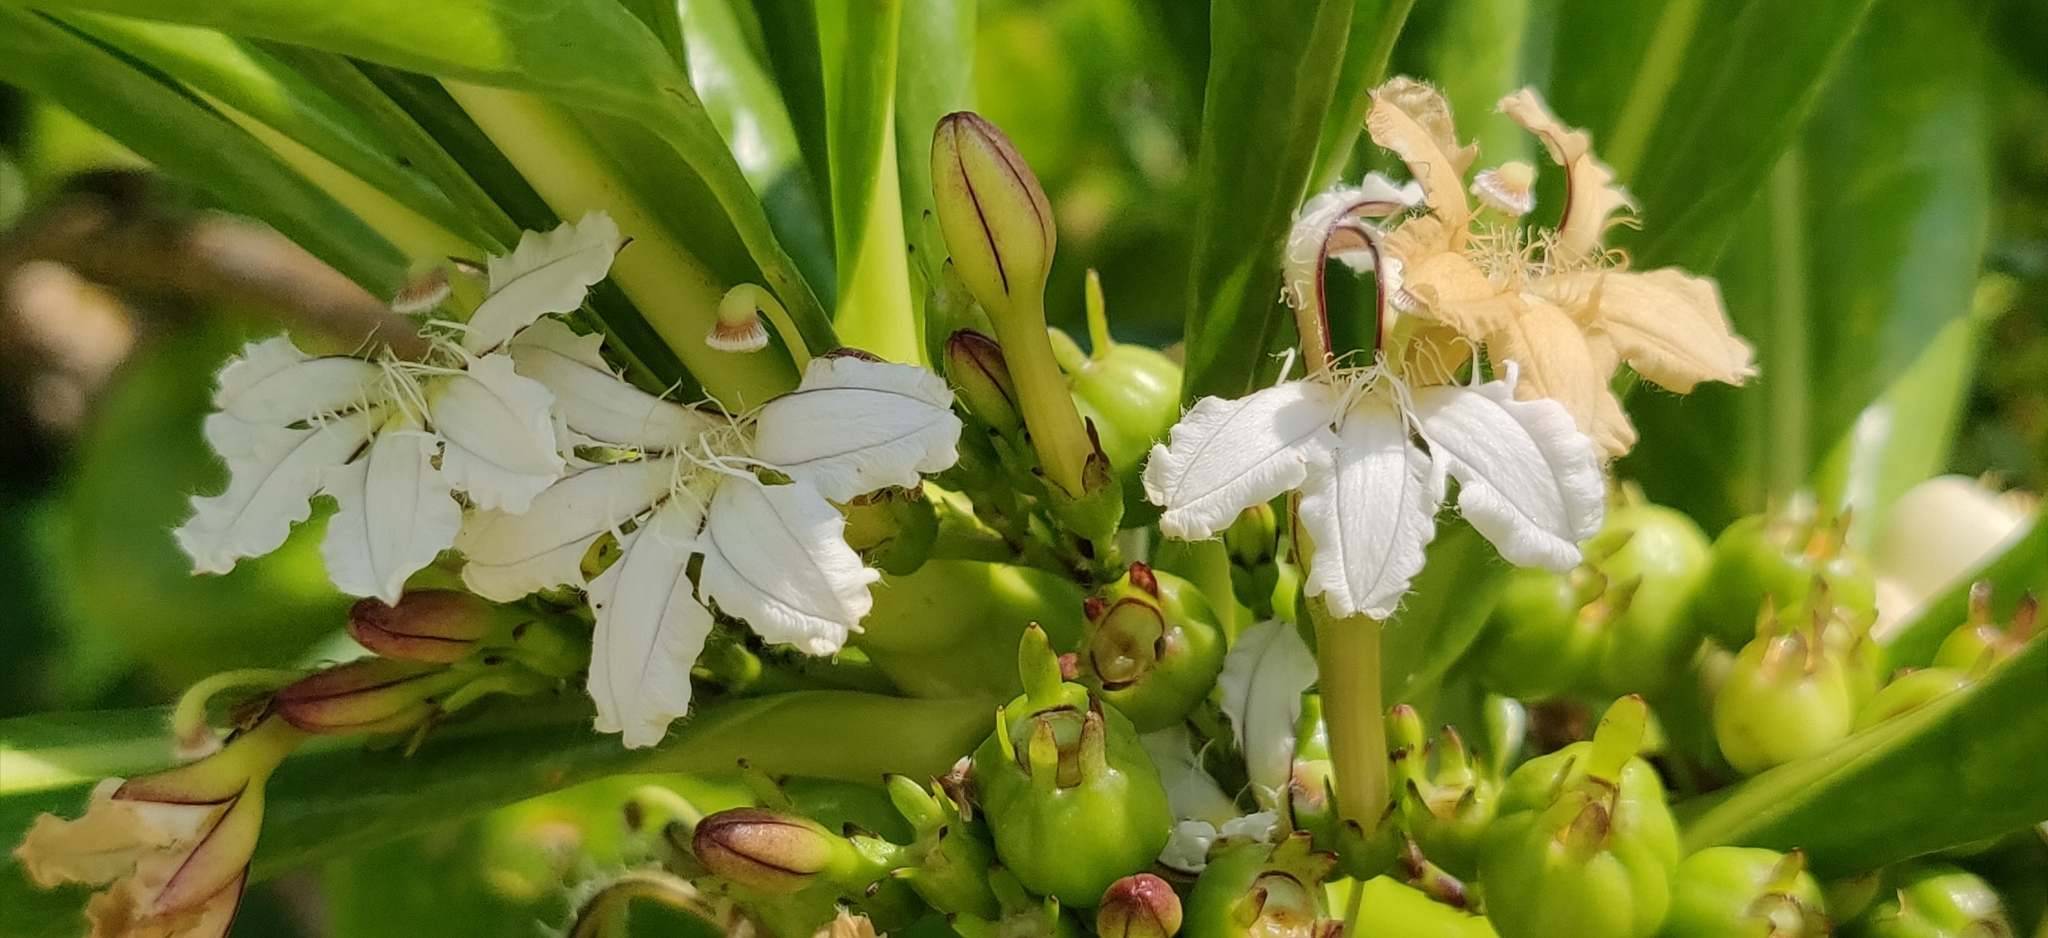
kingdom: Plantae
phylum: Tracheophyta
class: Magnoliopsida
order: Asterales
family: Goodeniaceae
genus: Scaevola
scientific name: Scaevola taccada
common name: Sea lettucetree
